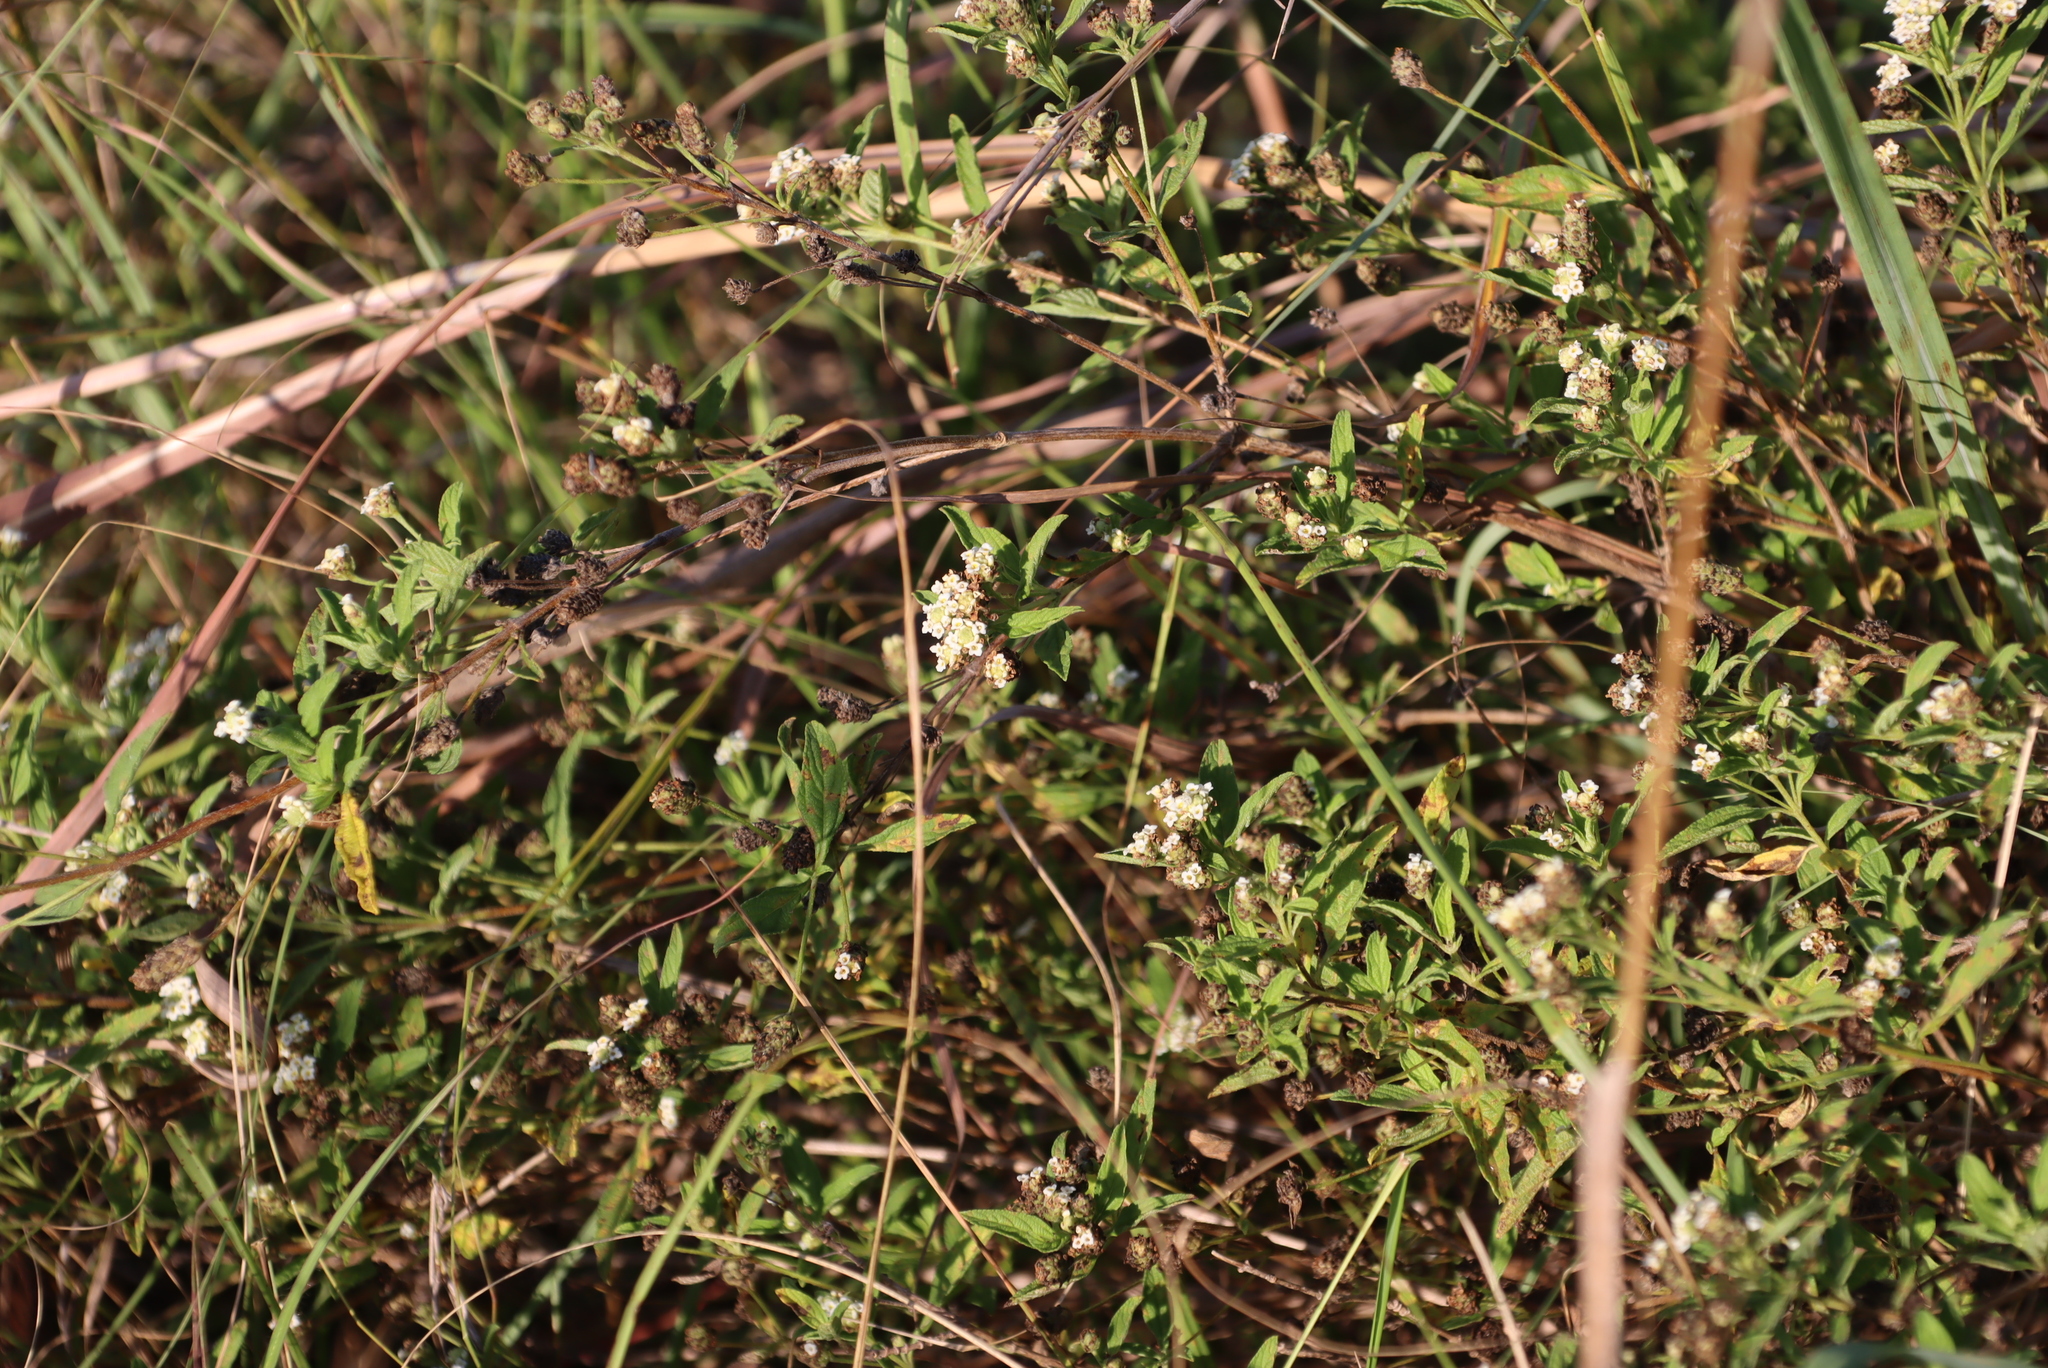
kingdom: Plantae
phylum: Tracheophyta
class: Magnoliopsida
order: Lamiales
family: Verbenaceae
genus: Lippia
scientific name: Lippia javanica
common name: Lemonbush
